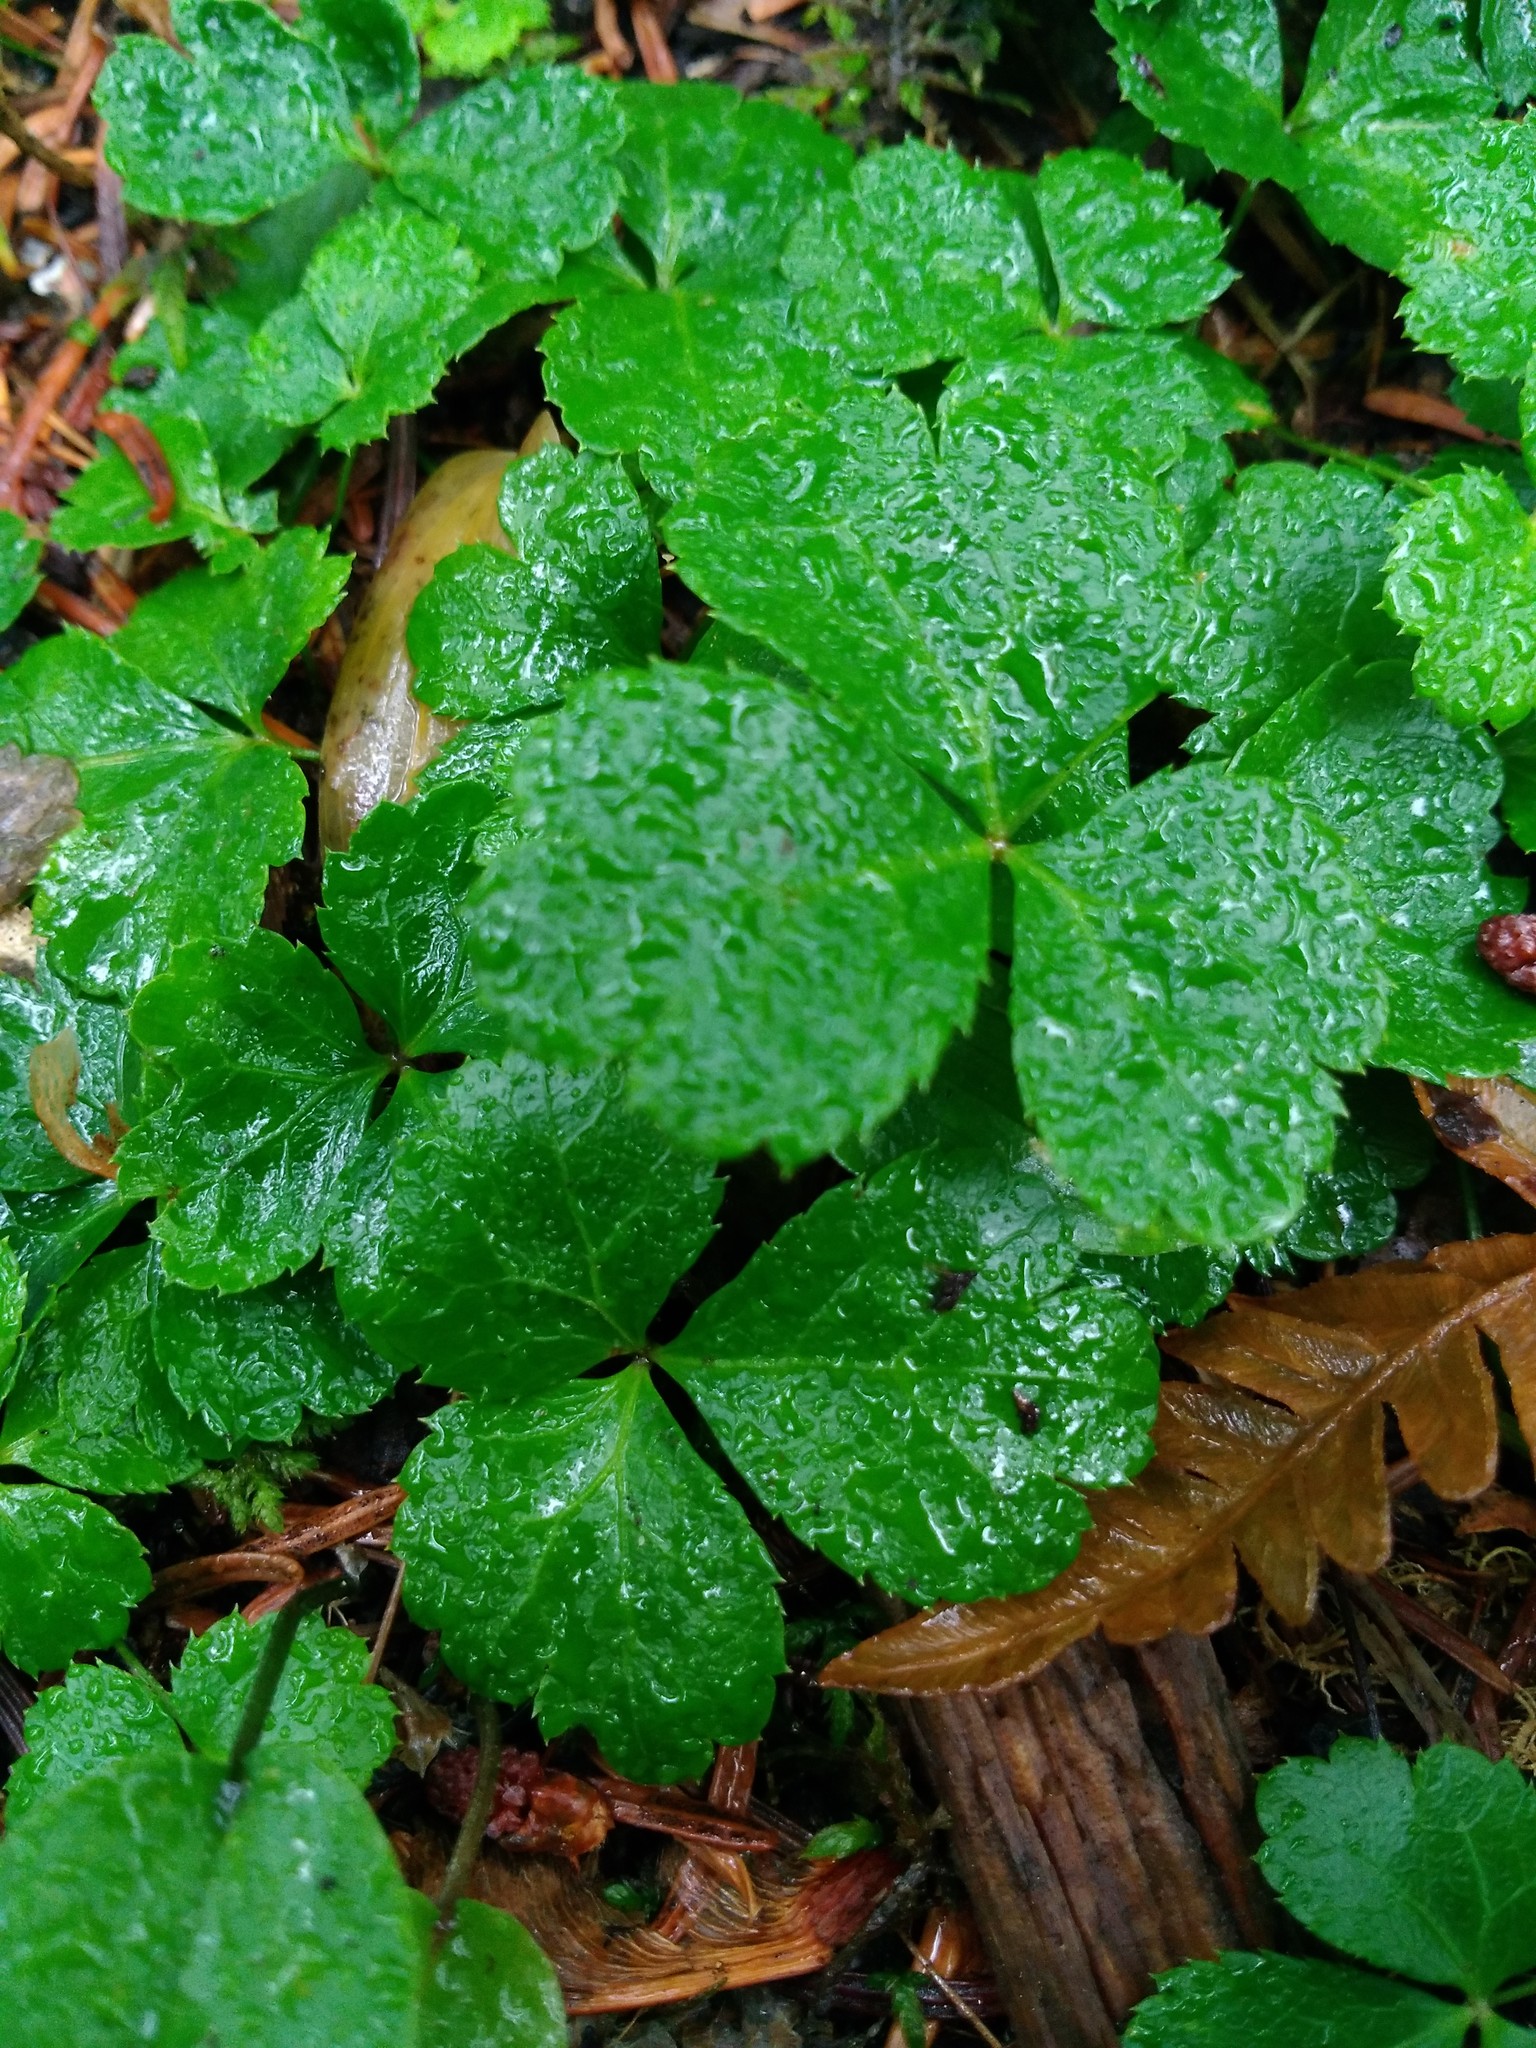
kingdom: Plantae
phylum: Tracheophyta
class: Magnoliopsida
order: Ranunculales
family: Ranunculaceae
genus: Coptis
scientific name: Coptis trifolia
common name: Canker-root
